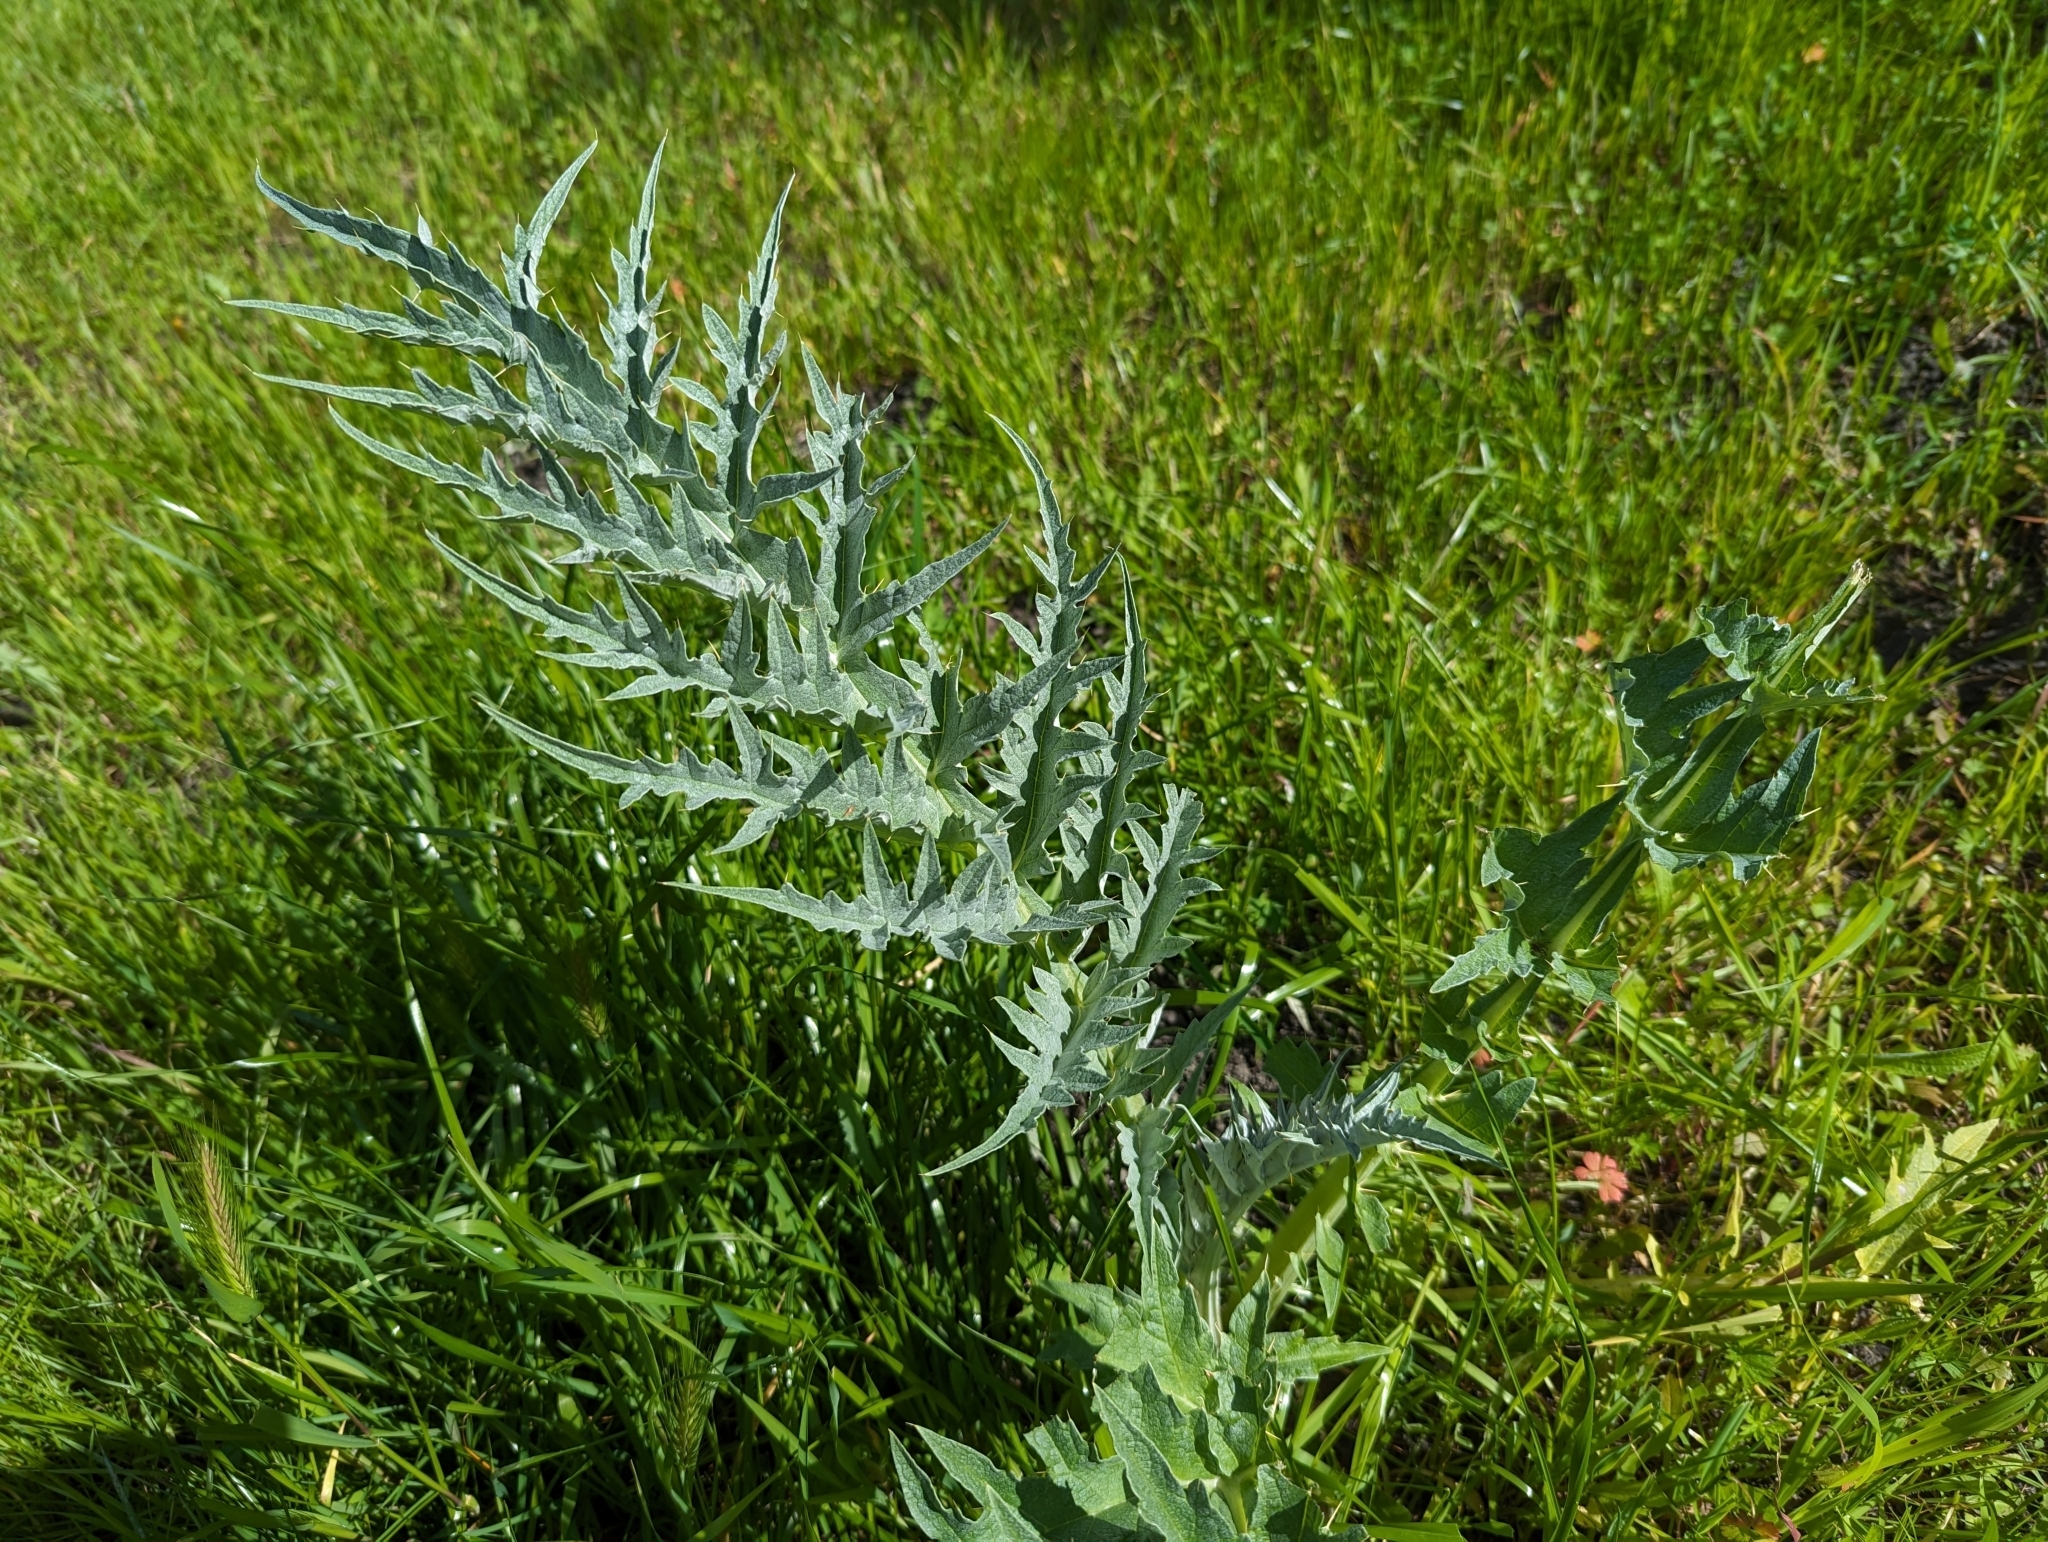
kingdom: Plantae
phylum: Tracheophyta
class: Magnoliopsida
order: Asterales
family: Asteraceae
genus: Cynara
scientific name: Cynara cardunculus
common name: Globe artichoke
